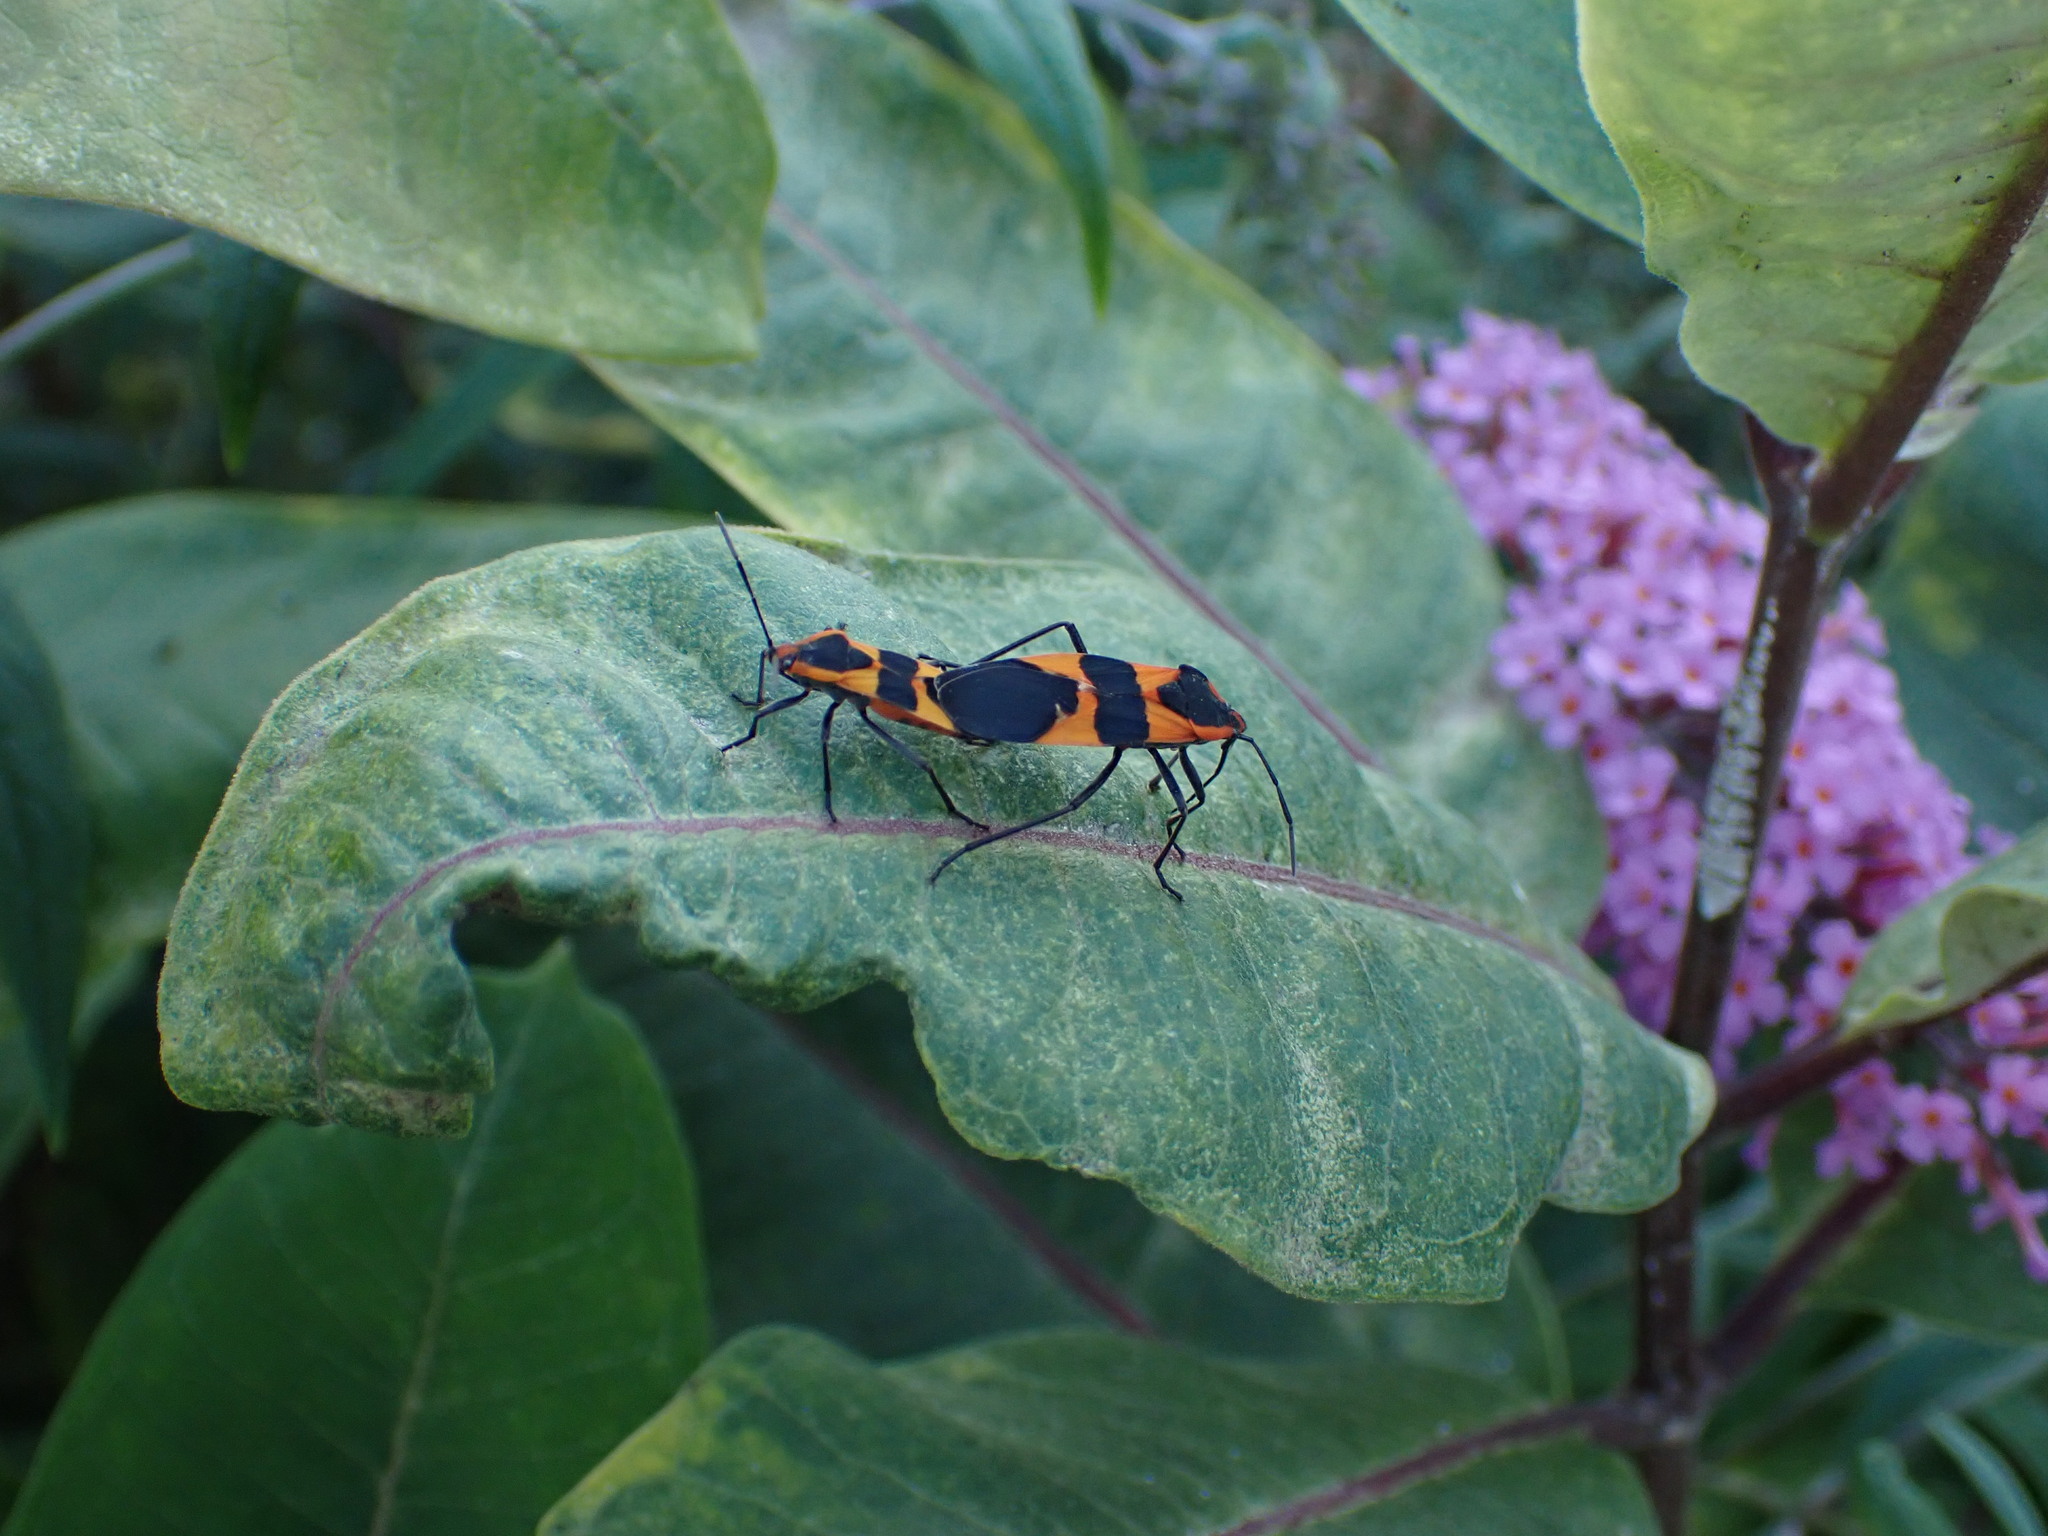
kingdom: Animalia
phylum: Arthropoda
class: Insecta
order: Hemiptera
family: Lygaeidae
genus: Oncopeltus
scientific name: Oncopeltus fasciatus
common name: Large milkweed bug
